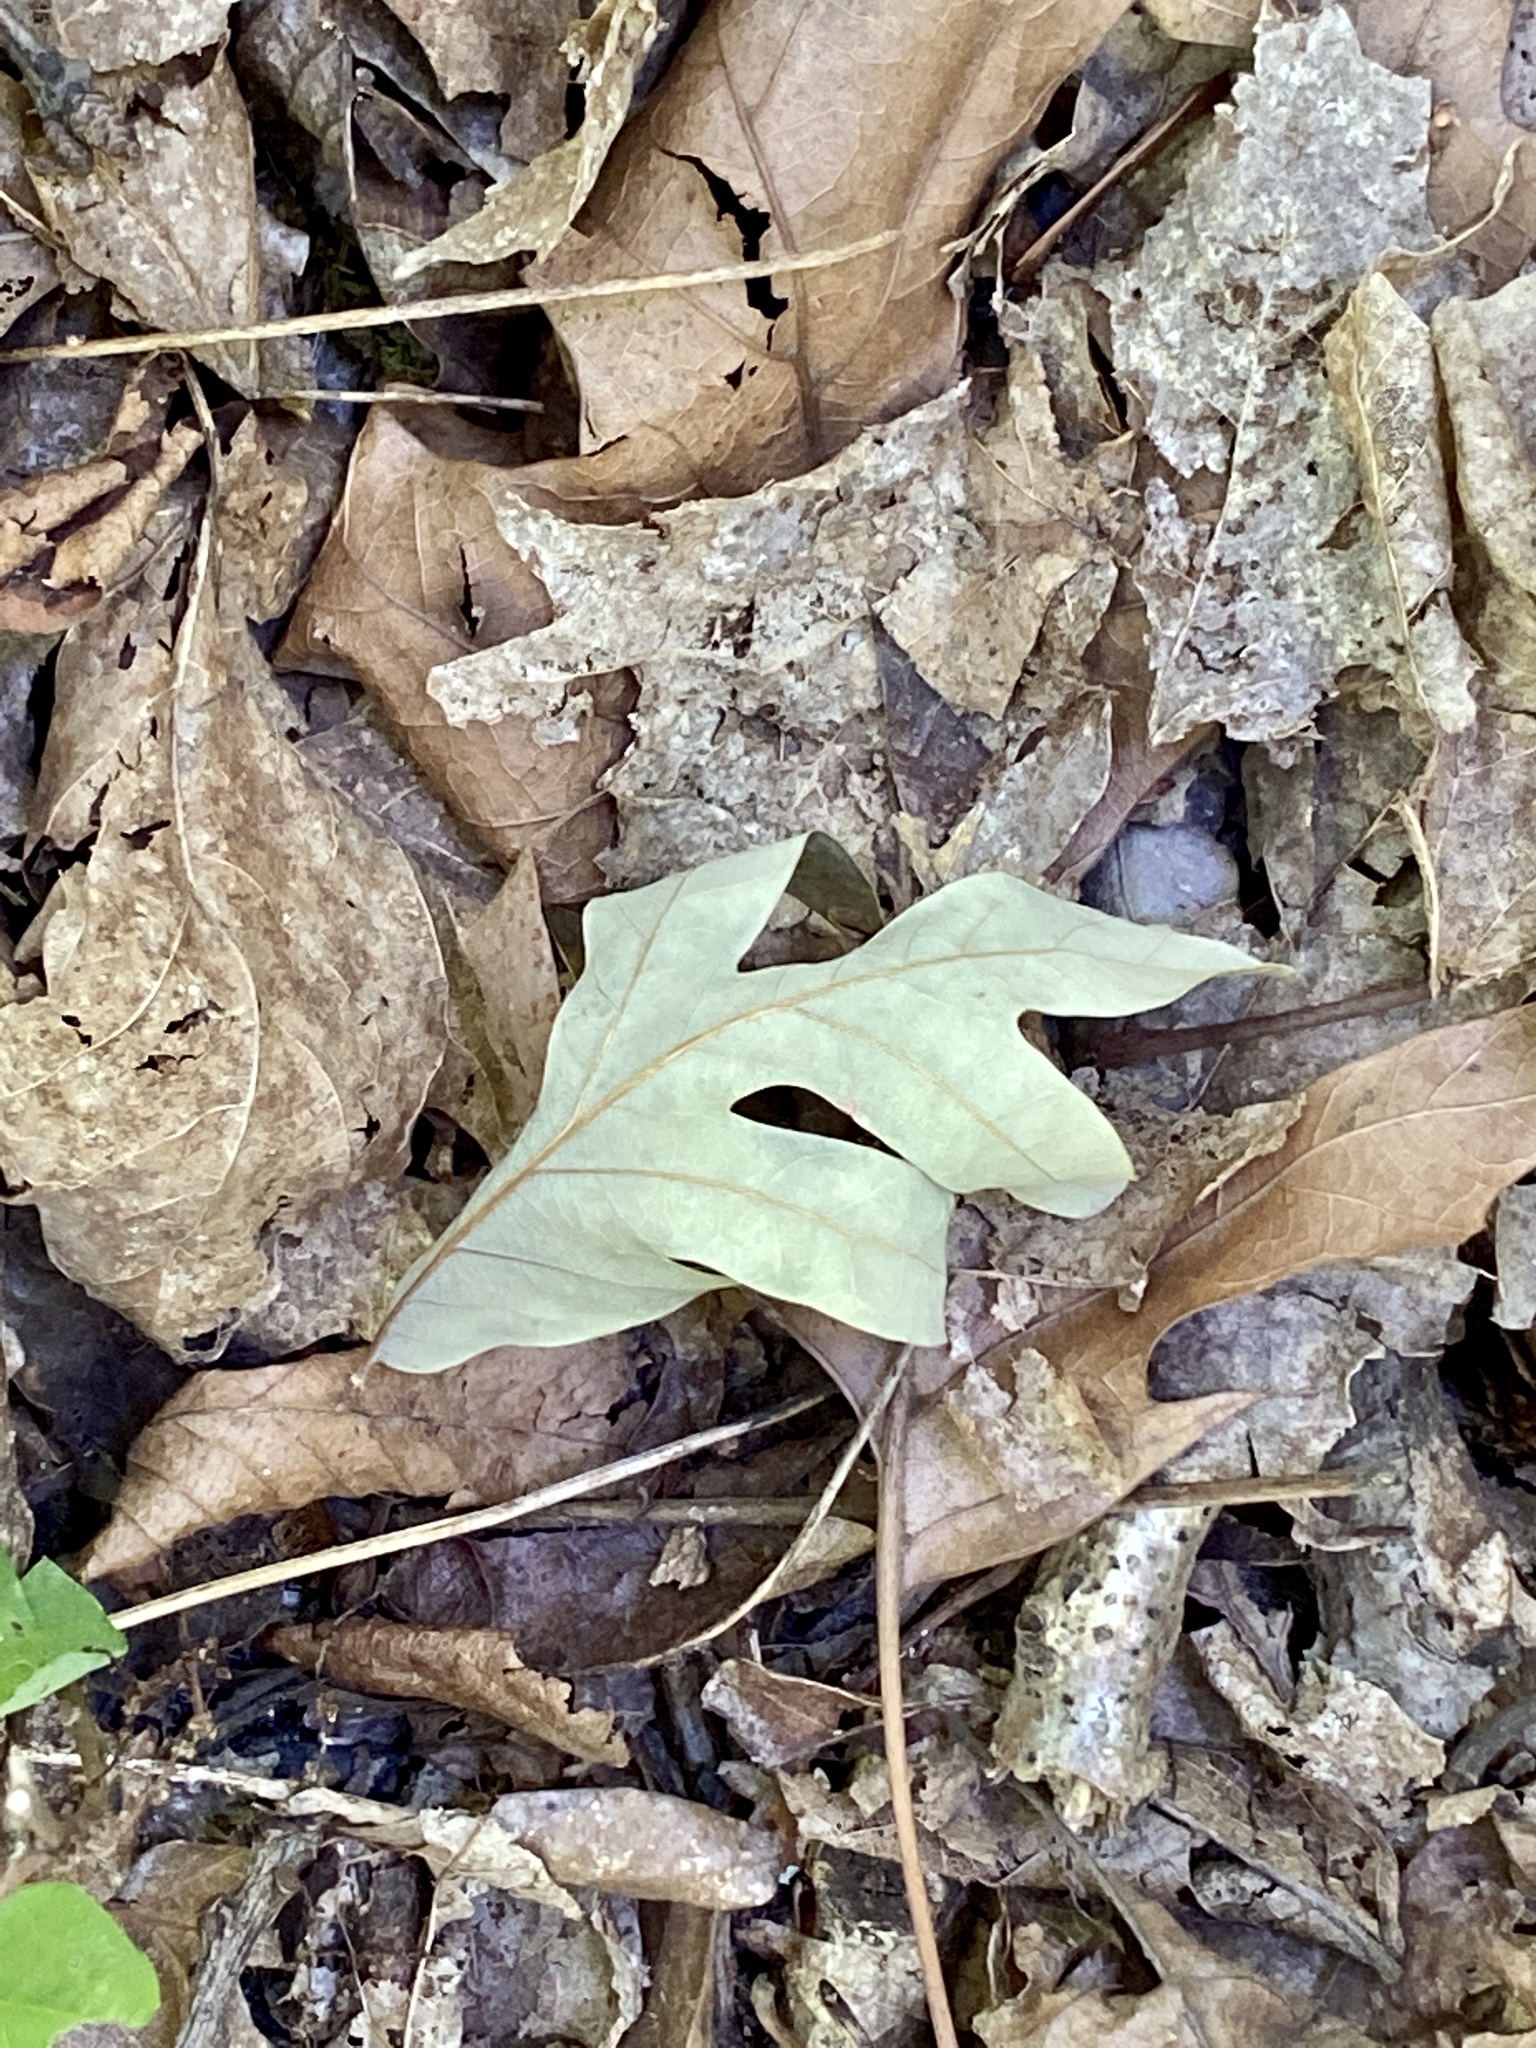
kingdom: Plantae
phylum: Tracheophyta
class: Magnoliopsida
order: Fagales
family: Fagaceae
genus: Quercus
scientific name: Quercus alba
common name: White oak
